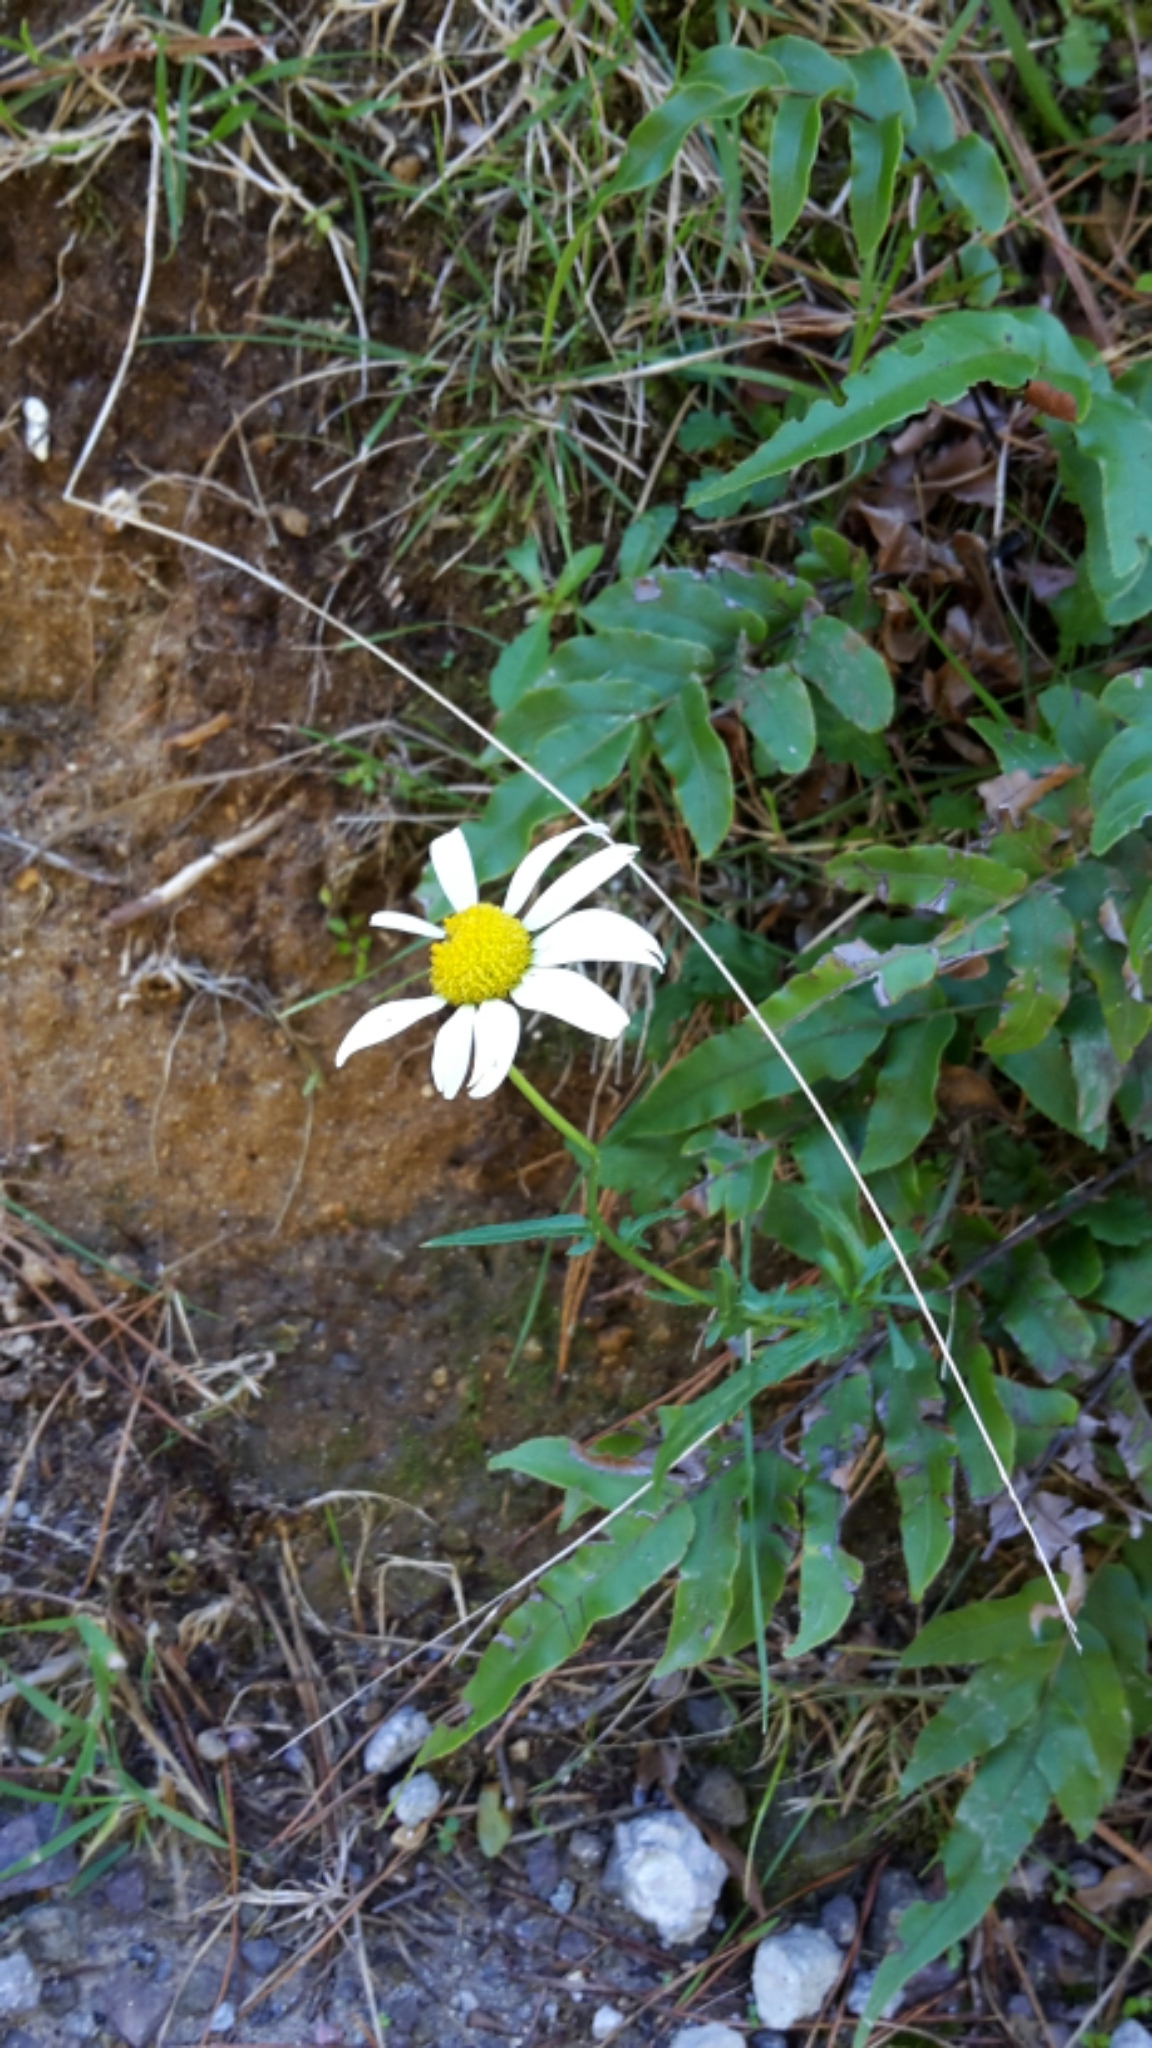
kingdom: Plantae
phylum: Tracheophyta
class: Magnoliopsida
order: Asterales
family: Asteraceae
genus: Leucanthemum
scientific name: Leucanthemum vulgare
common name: Oxeye daisy
